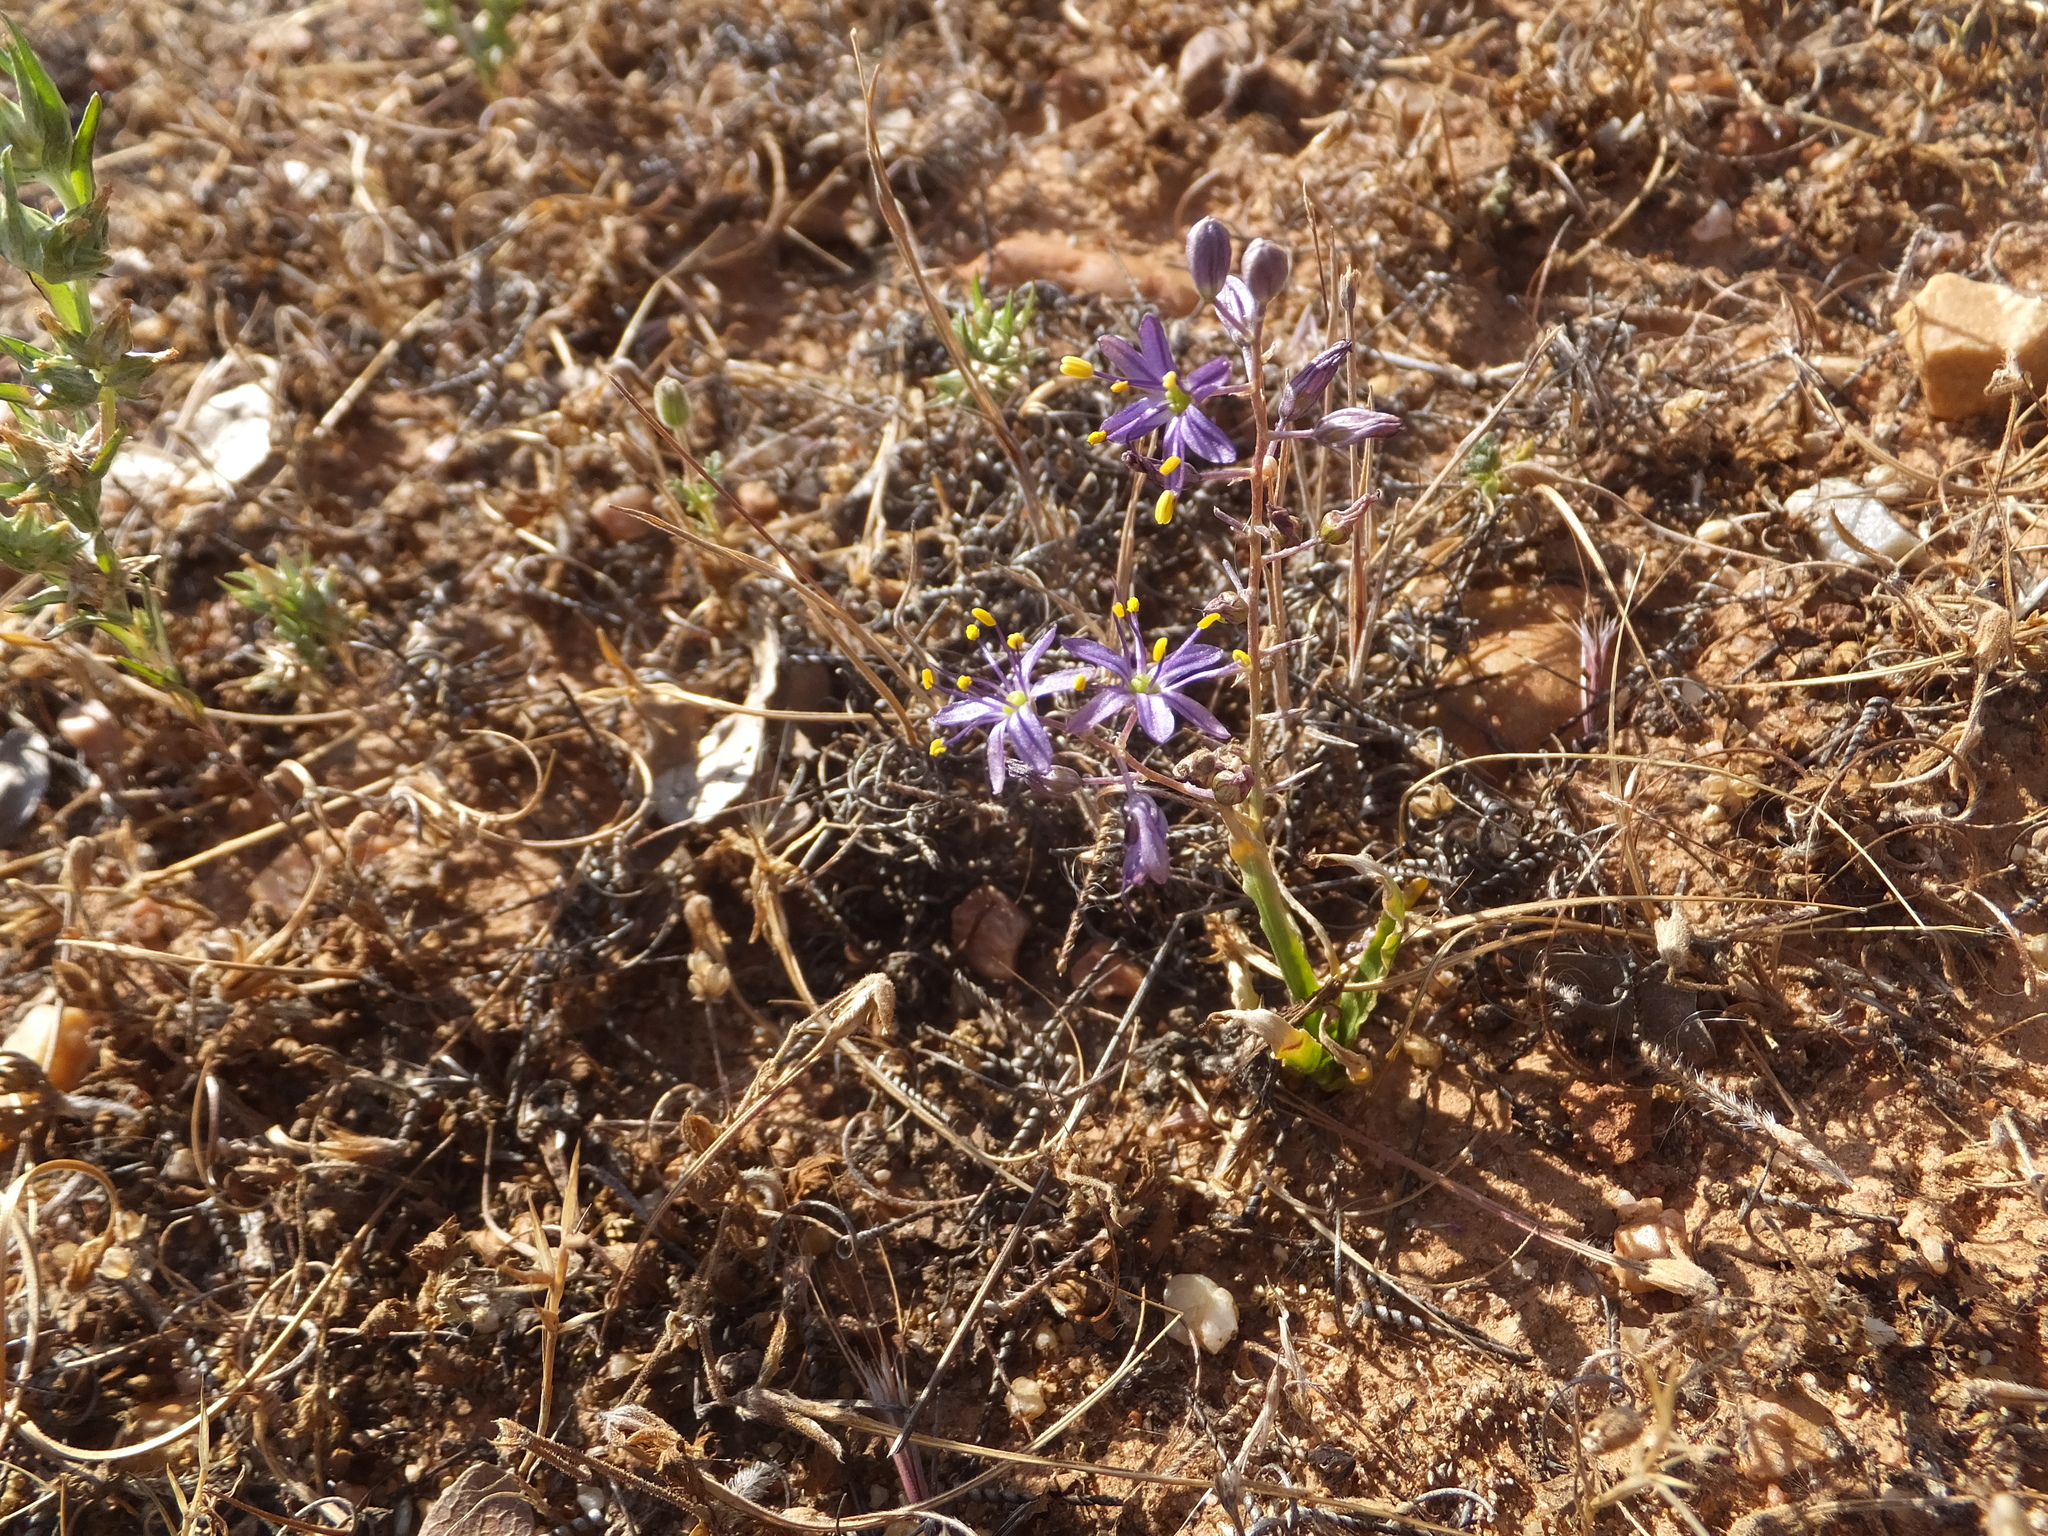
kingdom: Plantae
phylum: Tracheophyta
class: Liliopsida
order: Asparagales
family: Asparagaceae
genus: Hooveria
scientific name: Hooveria purpurea
